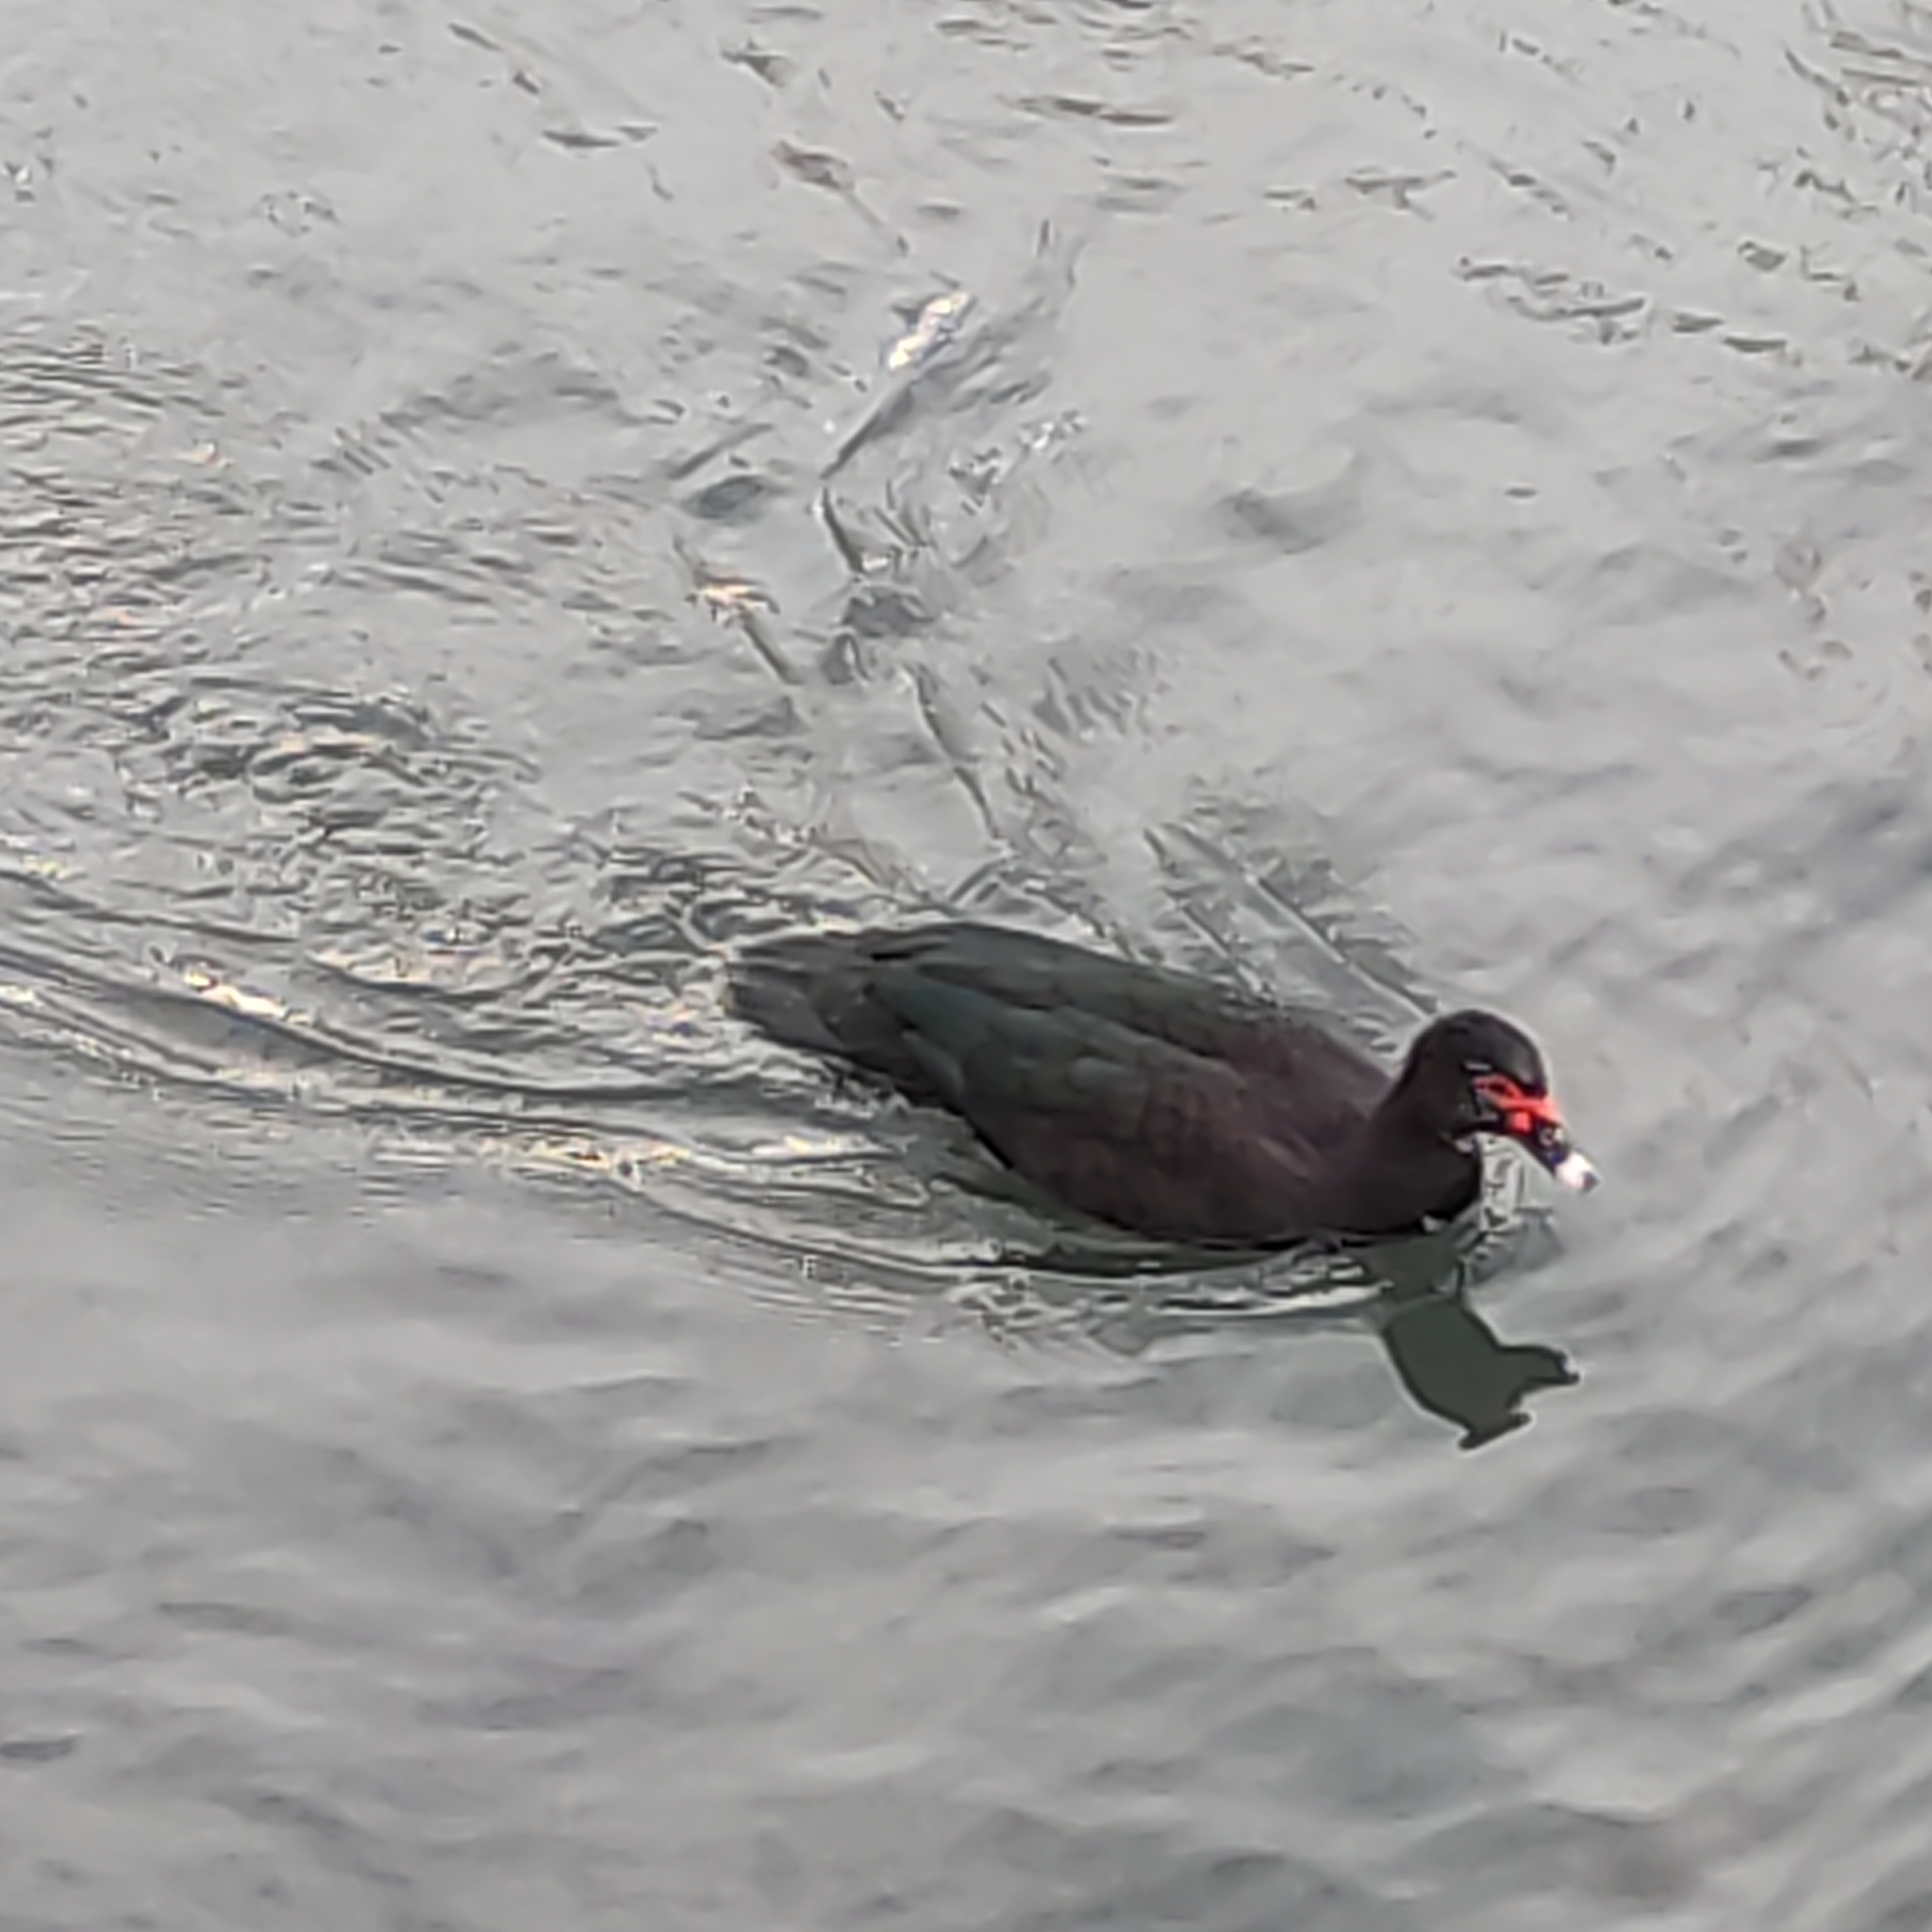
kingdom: Animalia
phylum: Chordata
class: Aves
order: Anseriformes
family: Anatidae
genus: Cairina
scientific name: Cairina moschata
